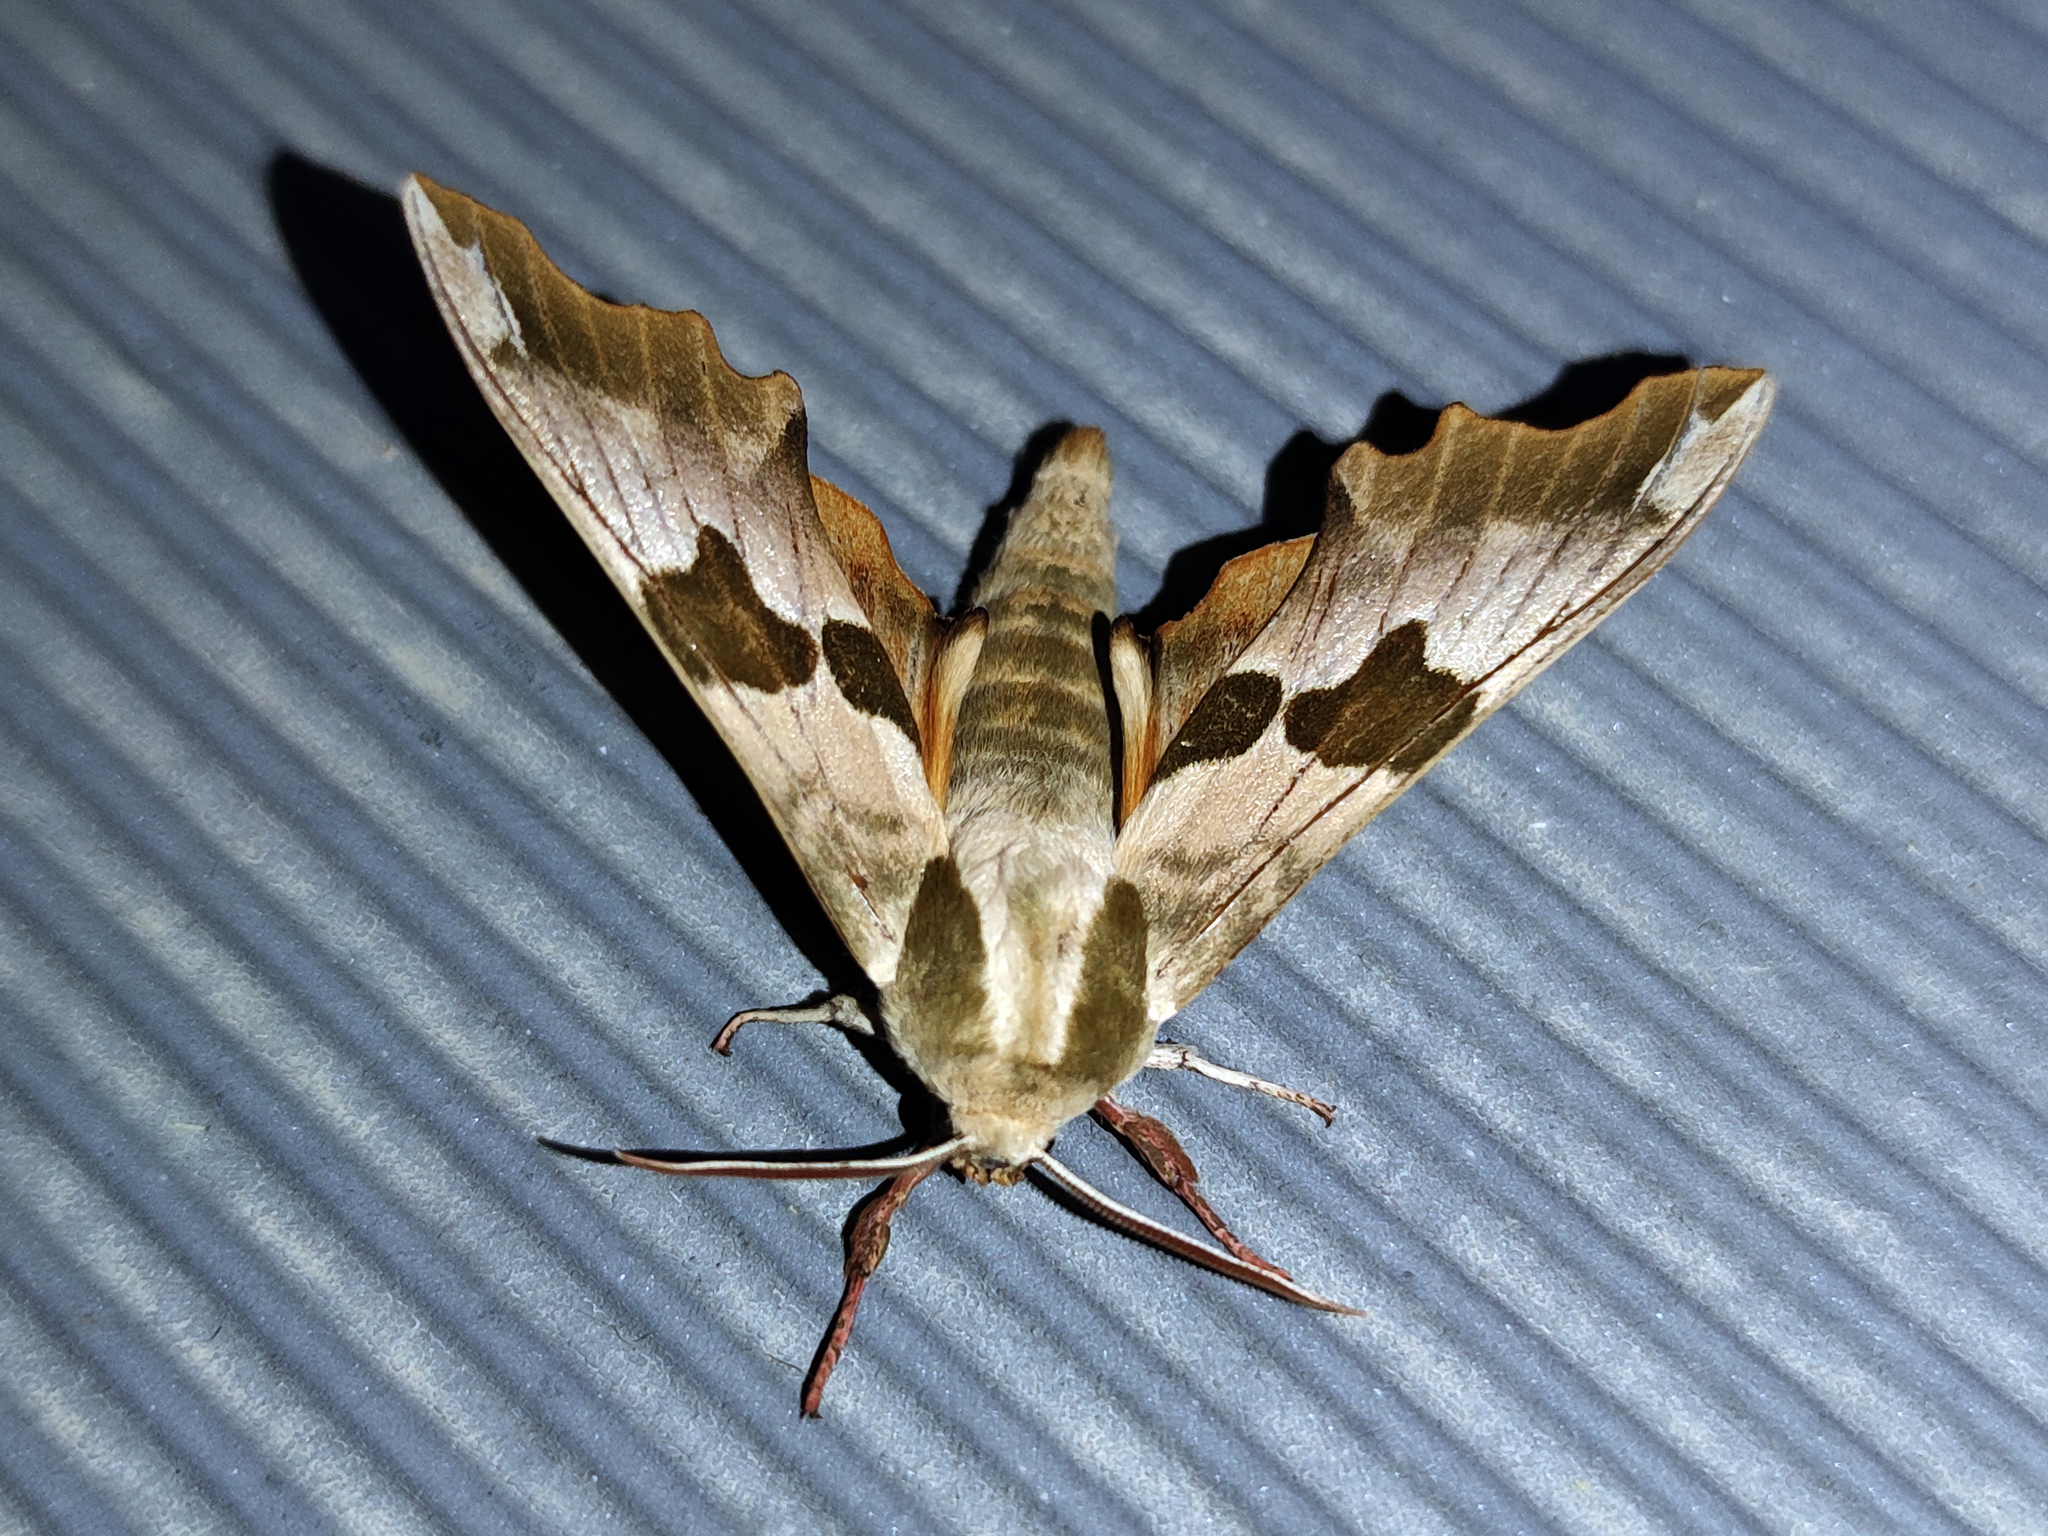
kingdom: Animalia
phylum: Arthropoda
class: Insecta
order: Lepidoptera
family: Sphingidae
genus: Mimas
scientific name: Mimas tiliae
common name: Lime hawk-moth
